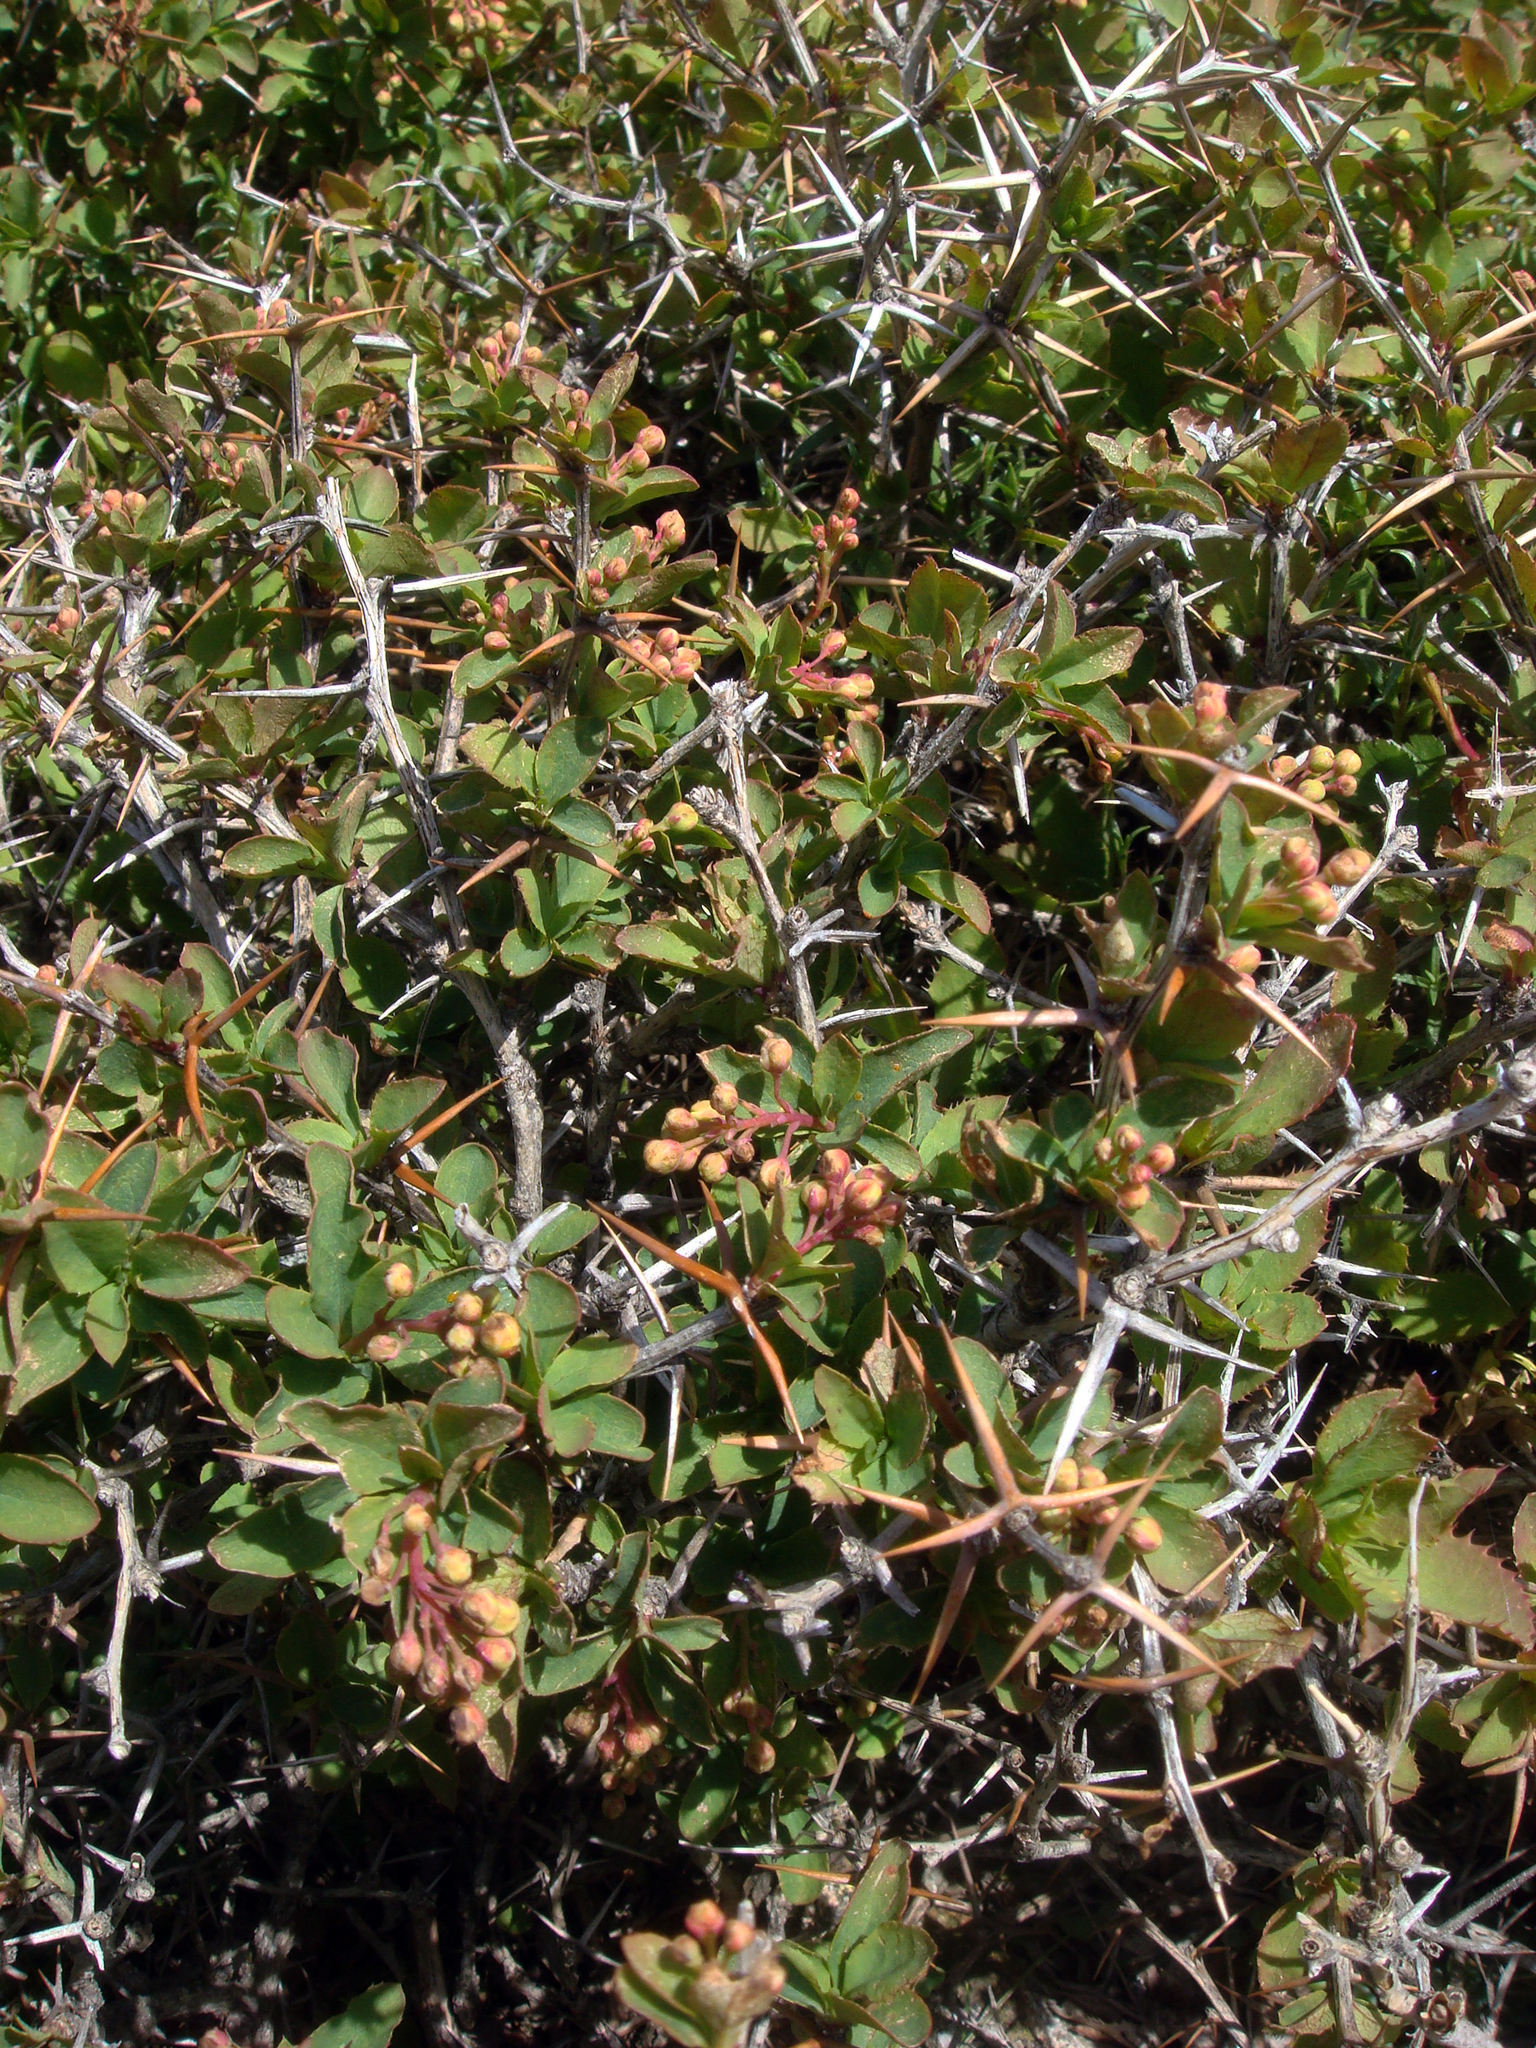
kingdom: Plantae
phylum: Tracheophyta
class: Magnoliopsida
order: Ranunculales
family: Berberidaceae
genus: Berberis
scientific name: Berberis aetnensis
